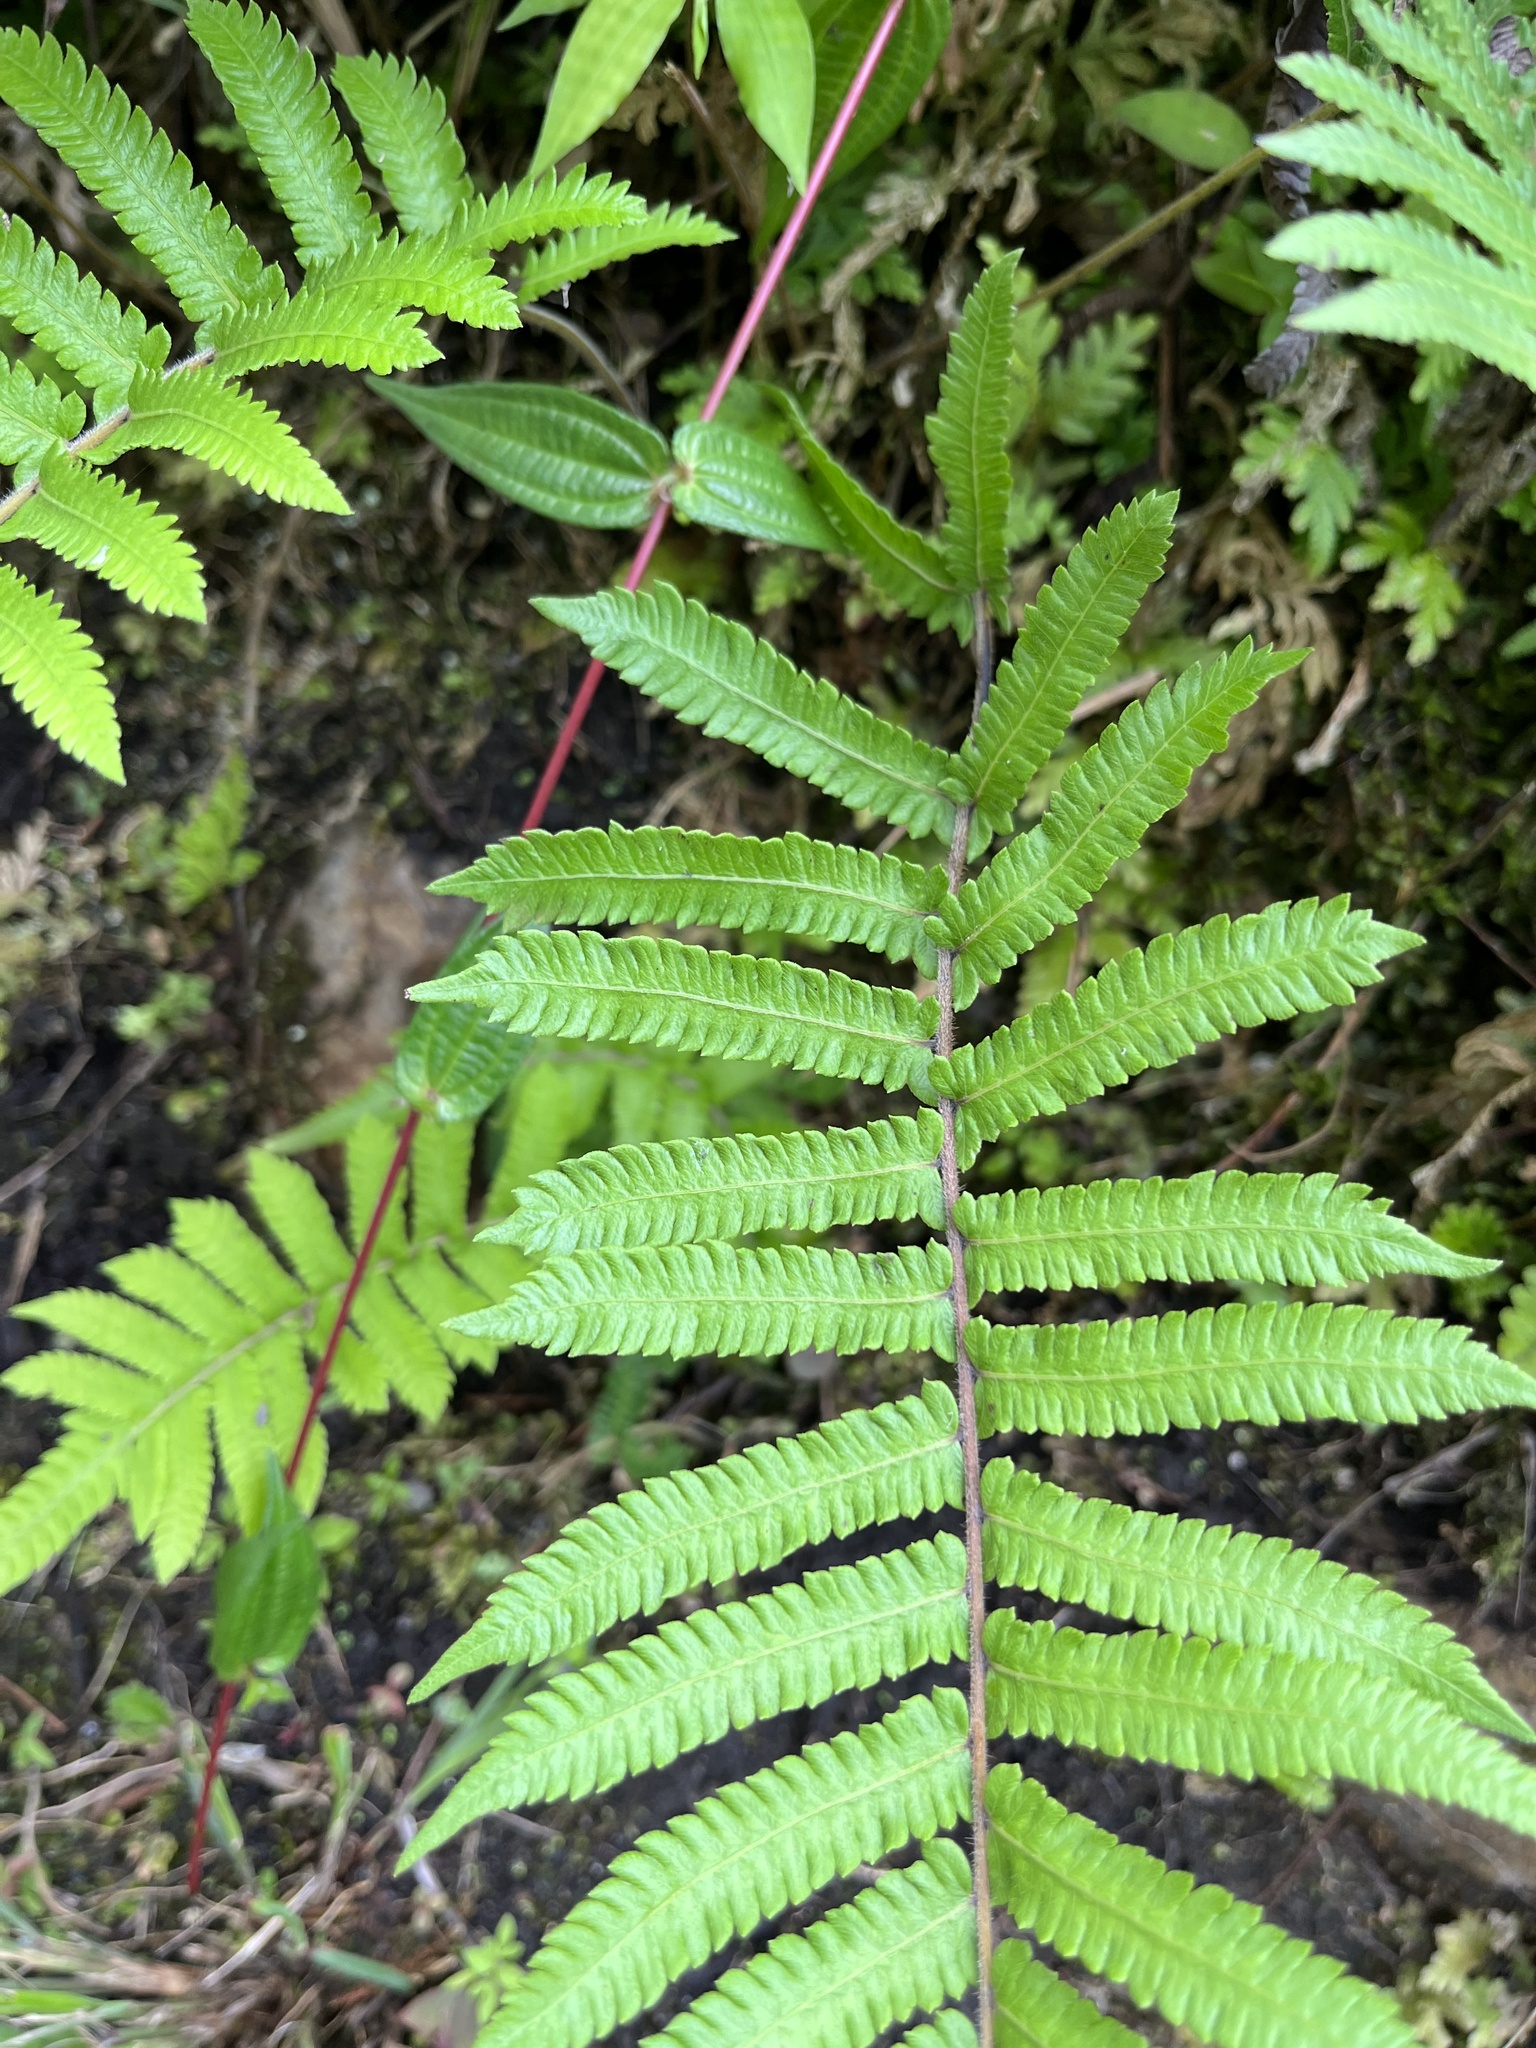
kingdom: Plantae
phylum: Tracheophyta
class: Polypodiopsida
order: Polypodiales
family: Thelypteridaceae
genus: Christella
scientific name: Christella acuminata
